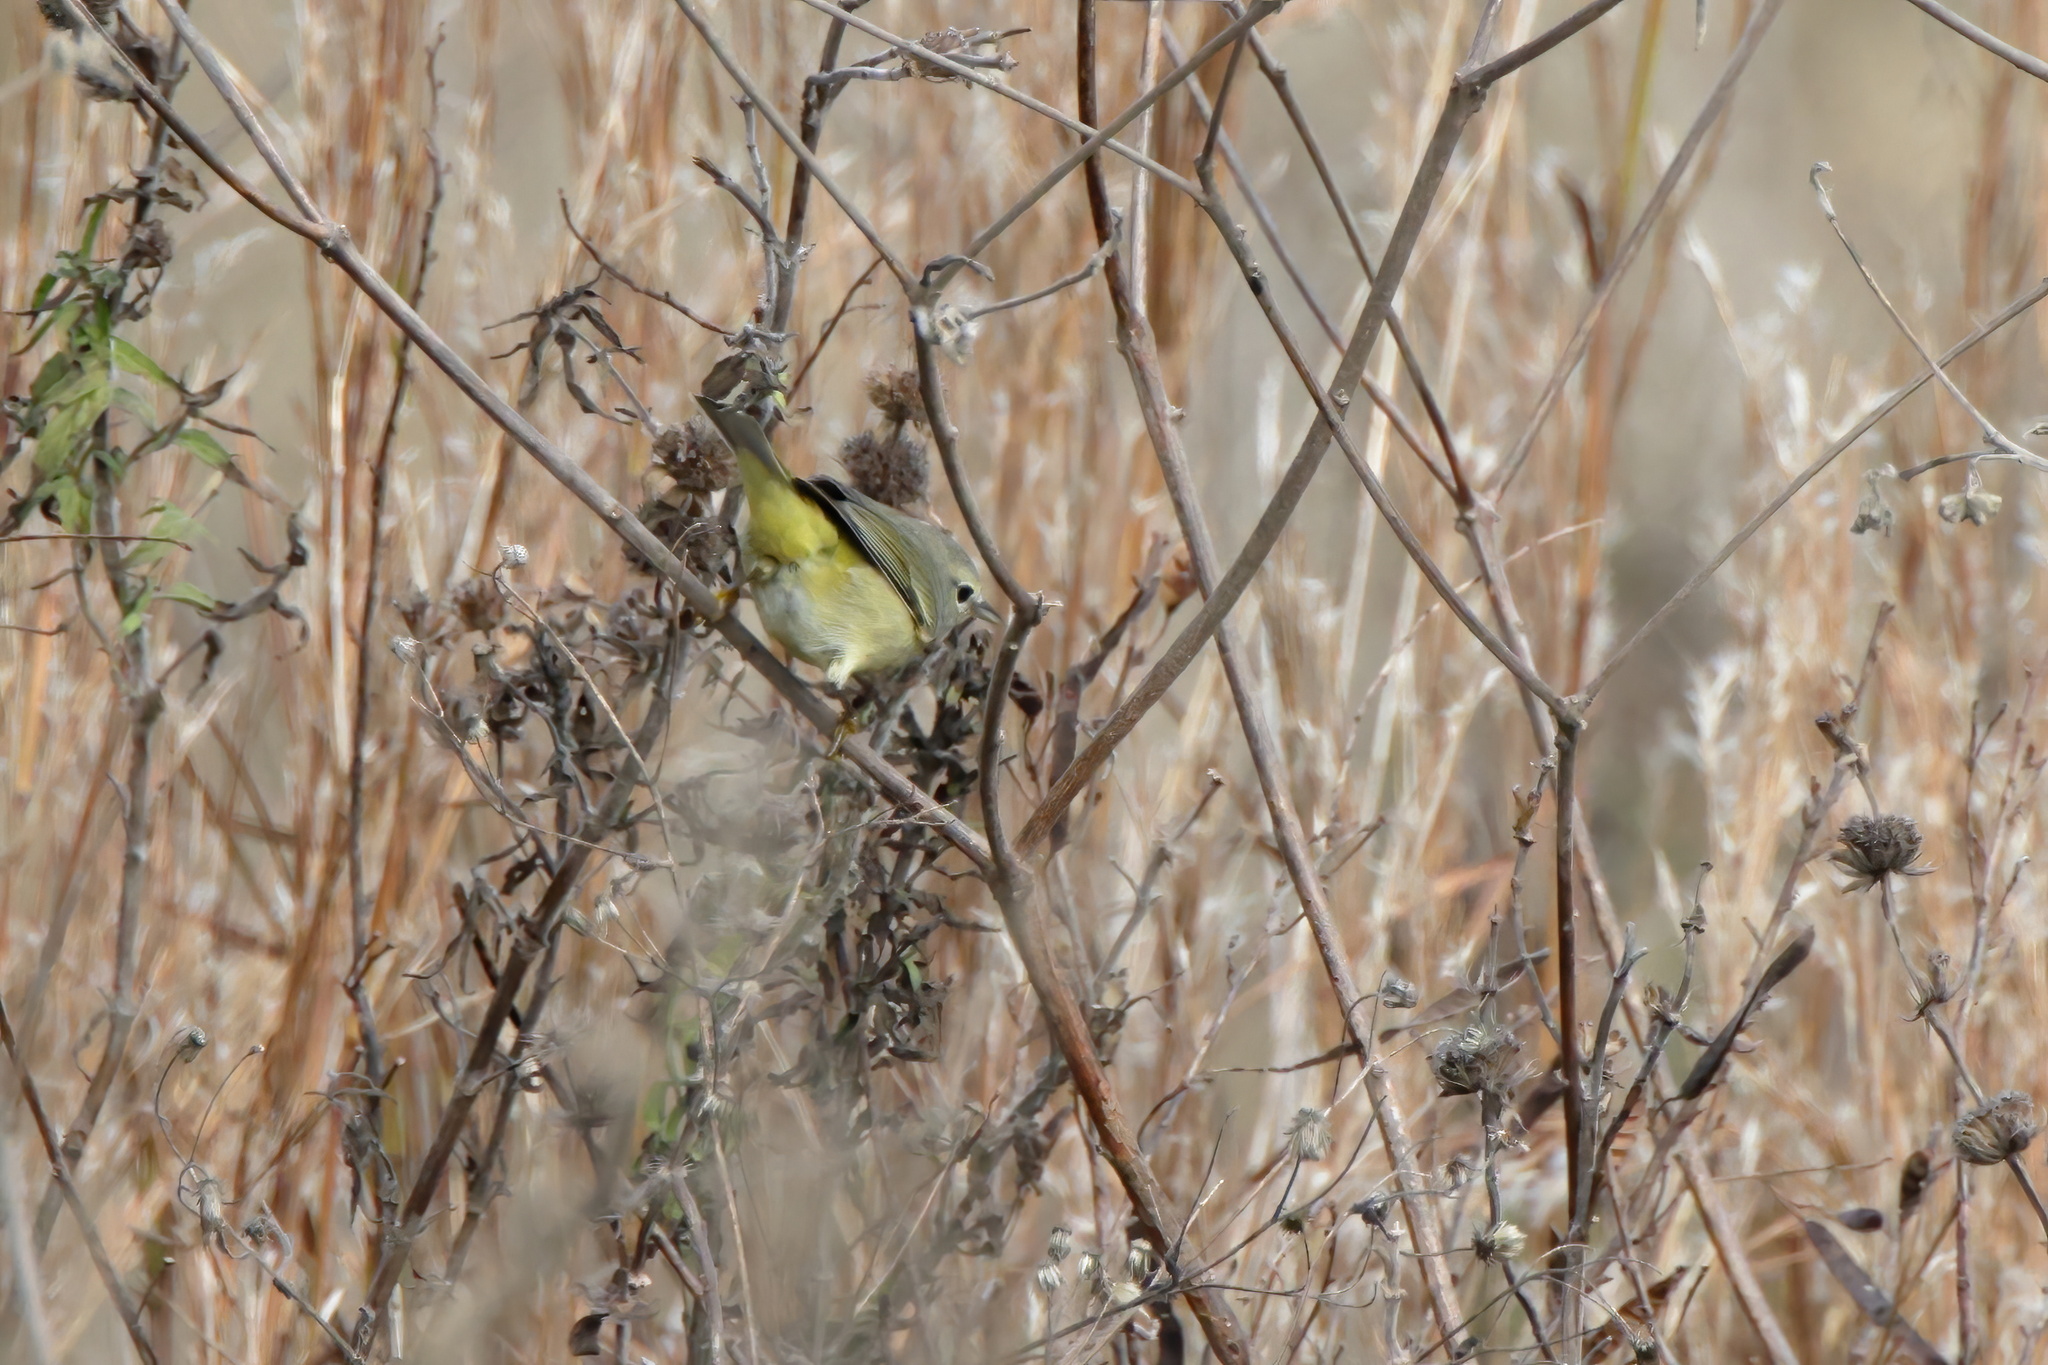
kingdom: Animalia
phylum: Chordata
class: Aves
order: Passeriformes
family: Parulidae
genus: Leiothlypis
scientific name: Leiothlypis celata
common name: Orange-crowned warbler
